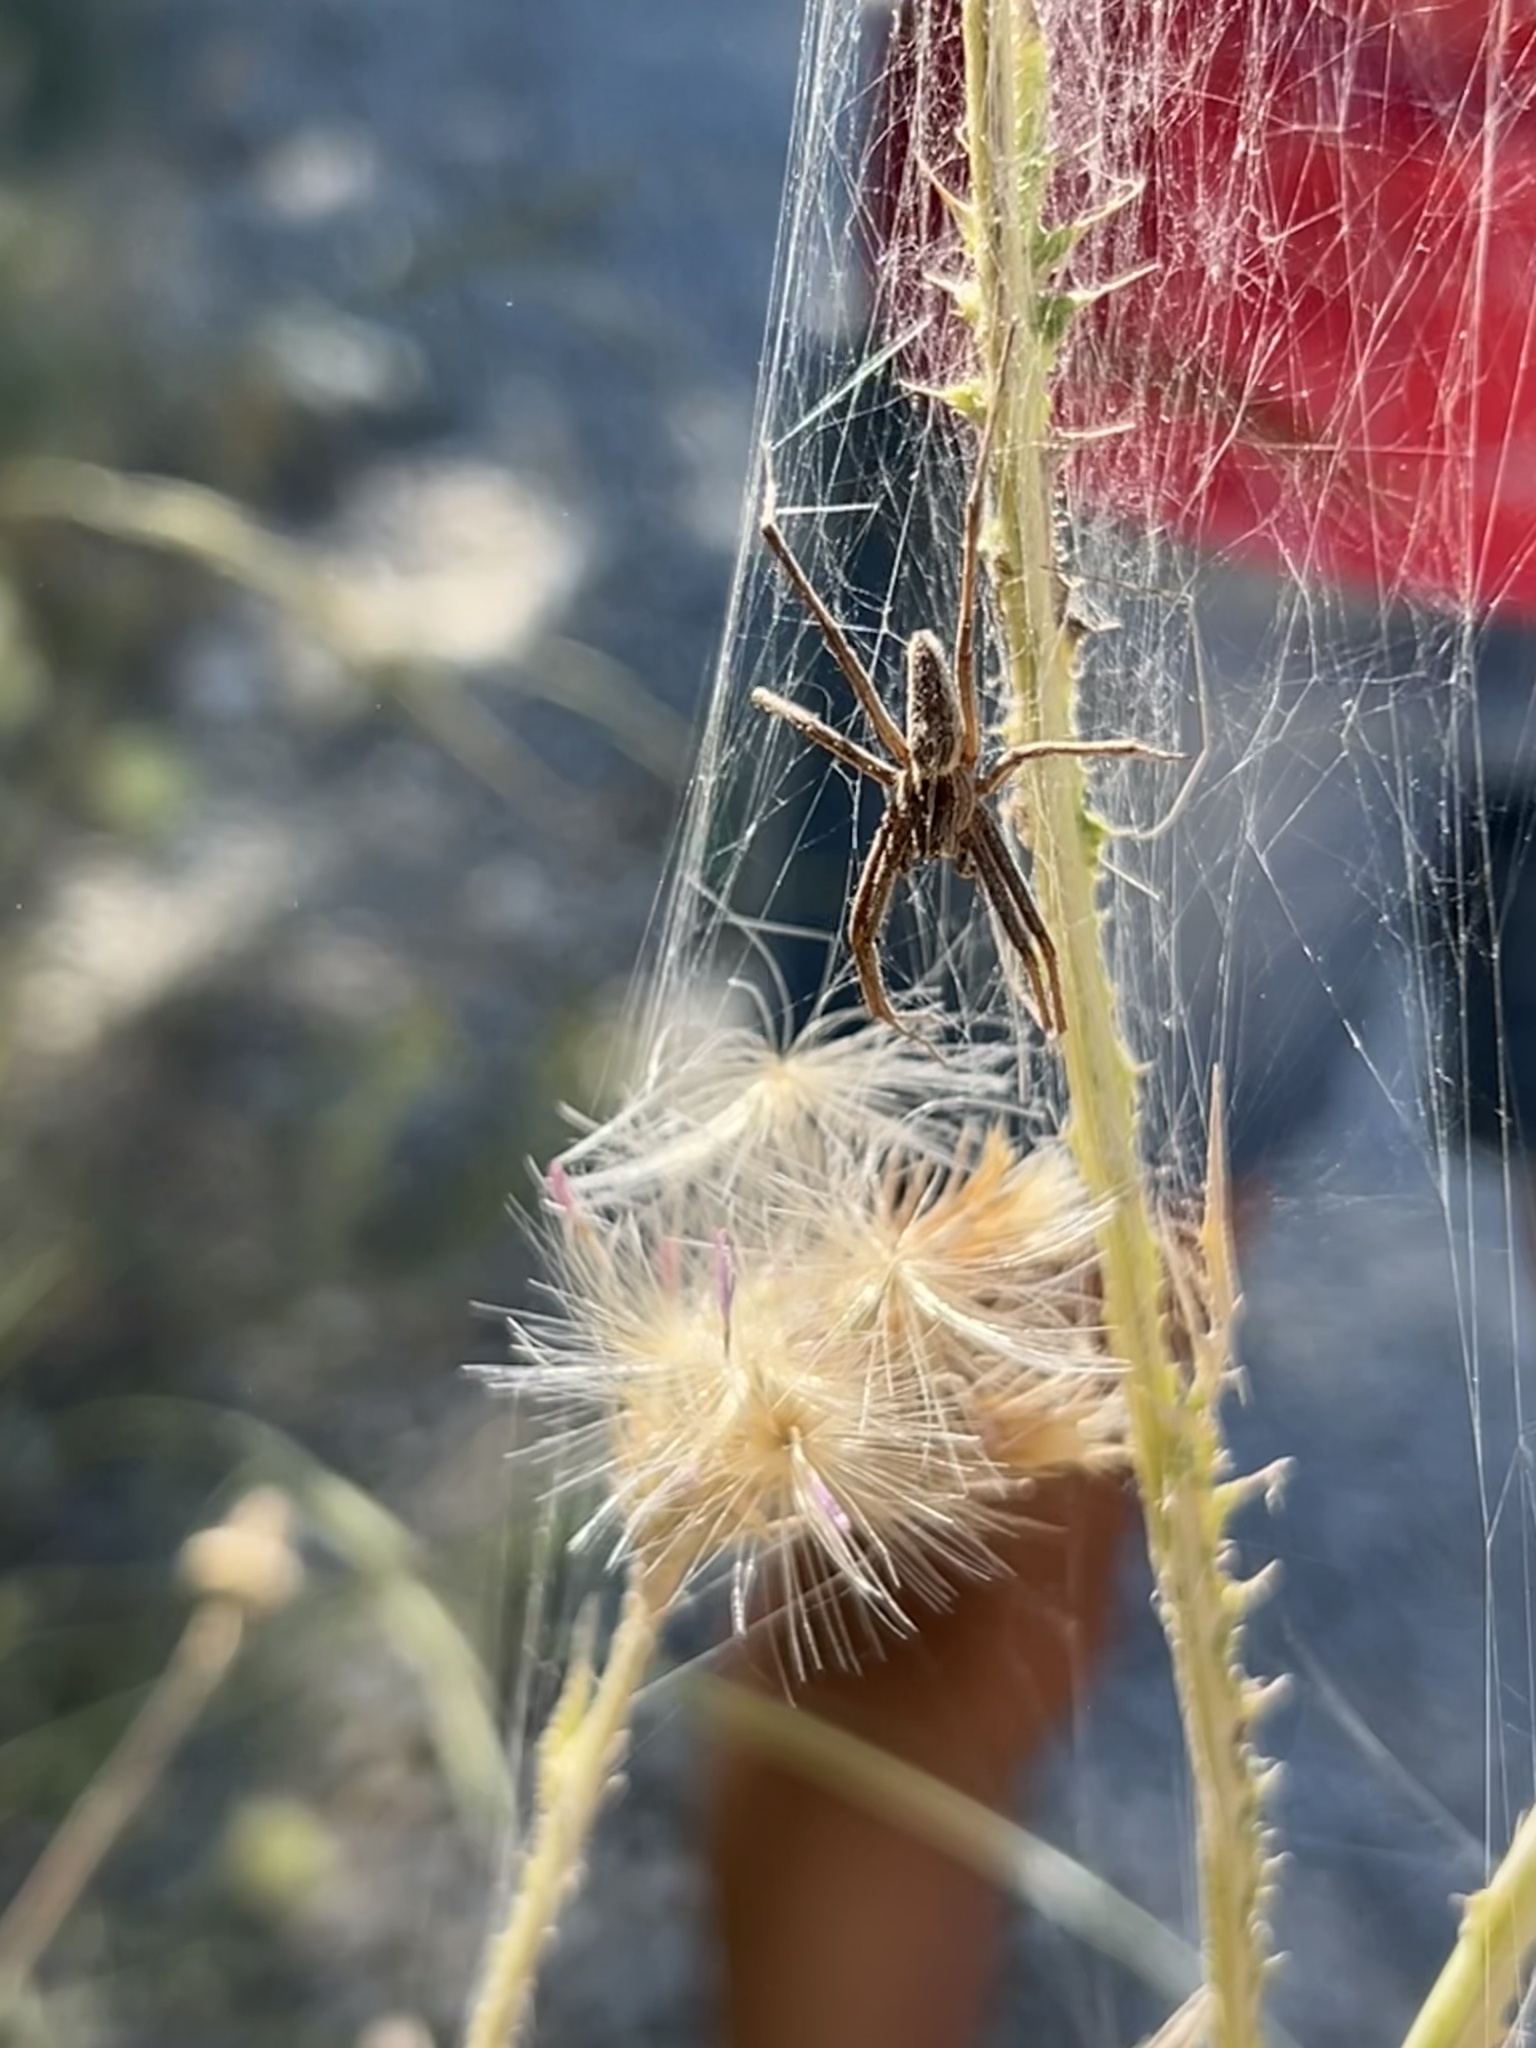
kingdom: Animalia
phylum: Arthropoda
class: Arachnida
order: Araneae
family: Pisauridae
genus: Pisaura
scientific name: Pisaura
